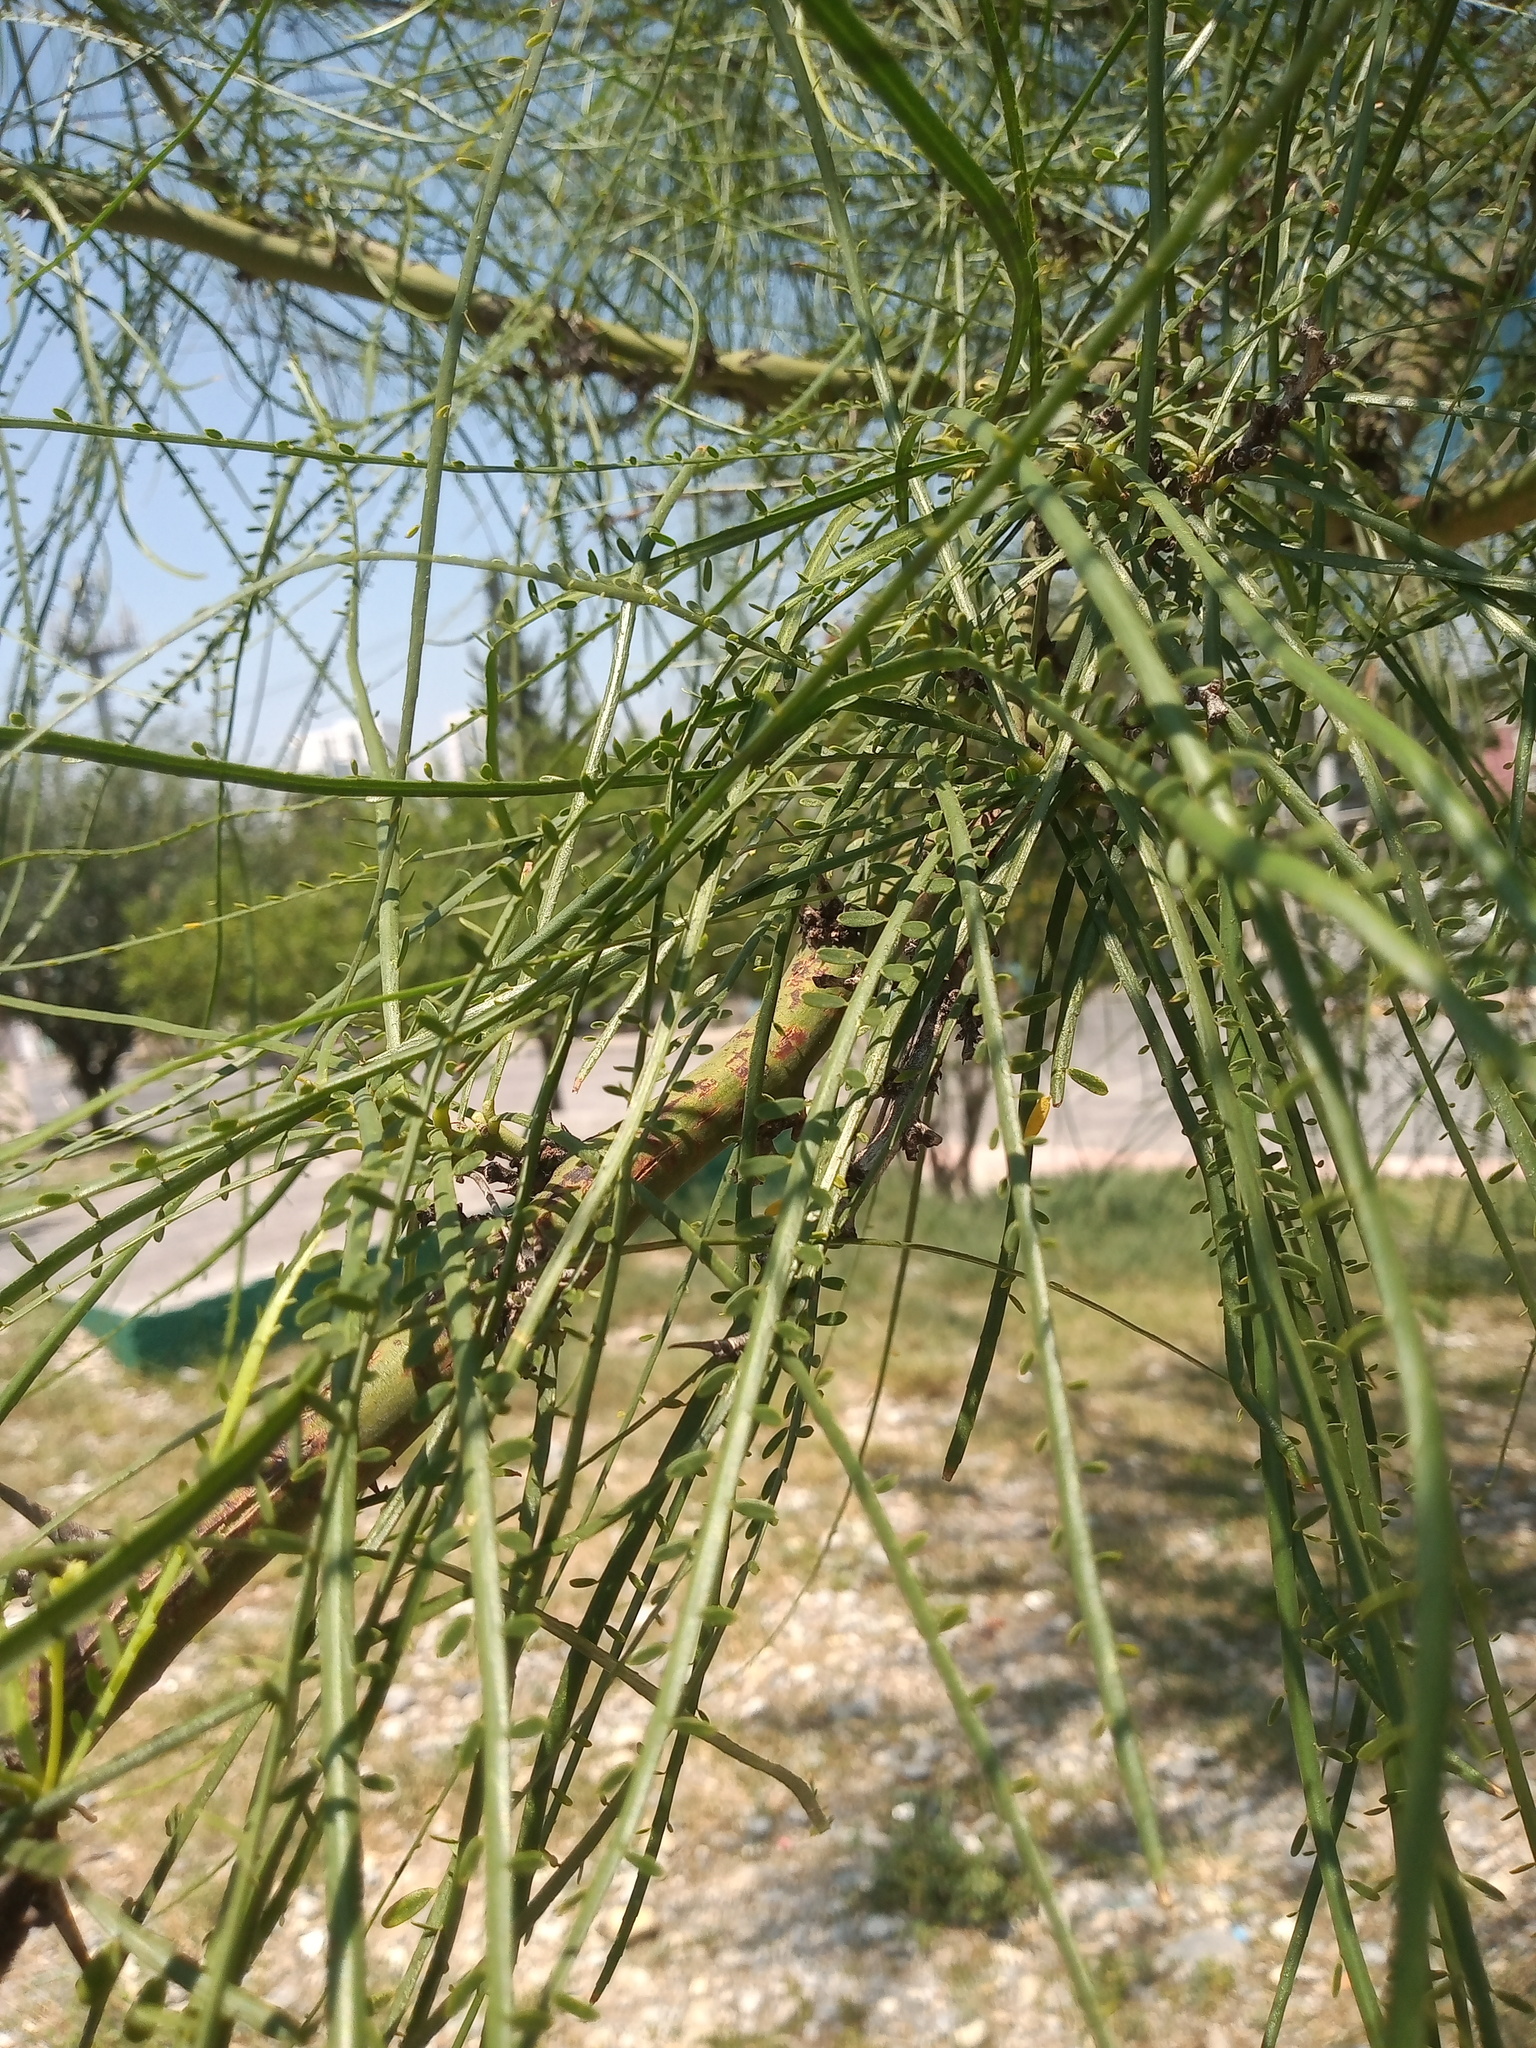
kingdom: Plantae
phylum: Tracheophyta
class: Magnoliopsida
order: Fabales
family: Fabaceae
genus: Parkinsonia
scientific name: Parkinsonia aculeata
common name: Jerusalem thorn
